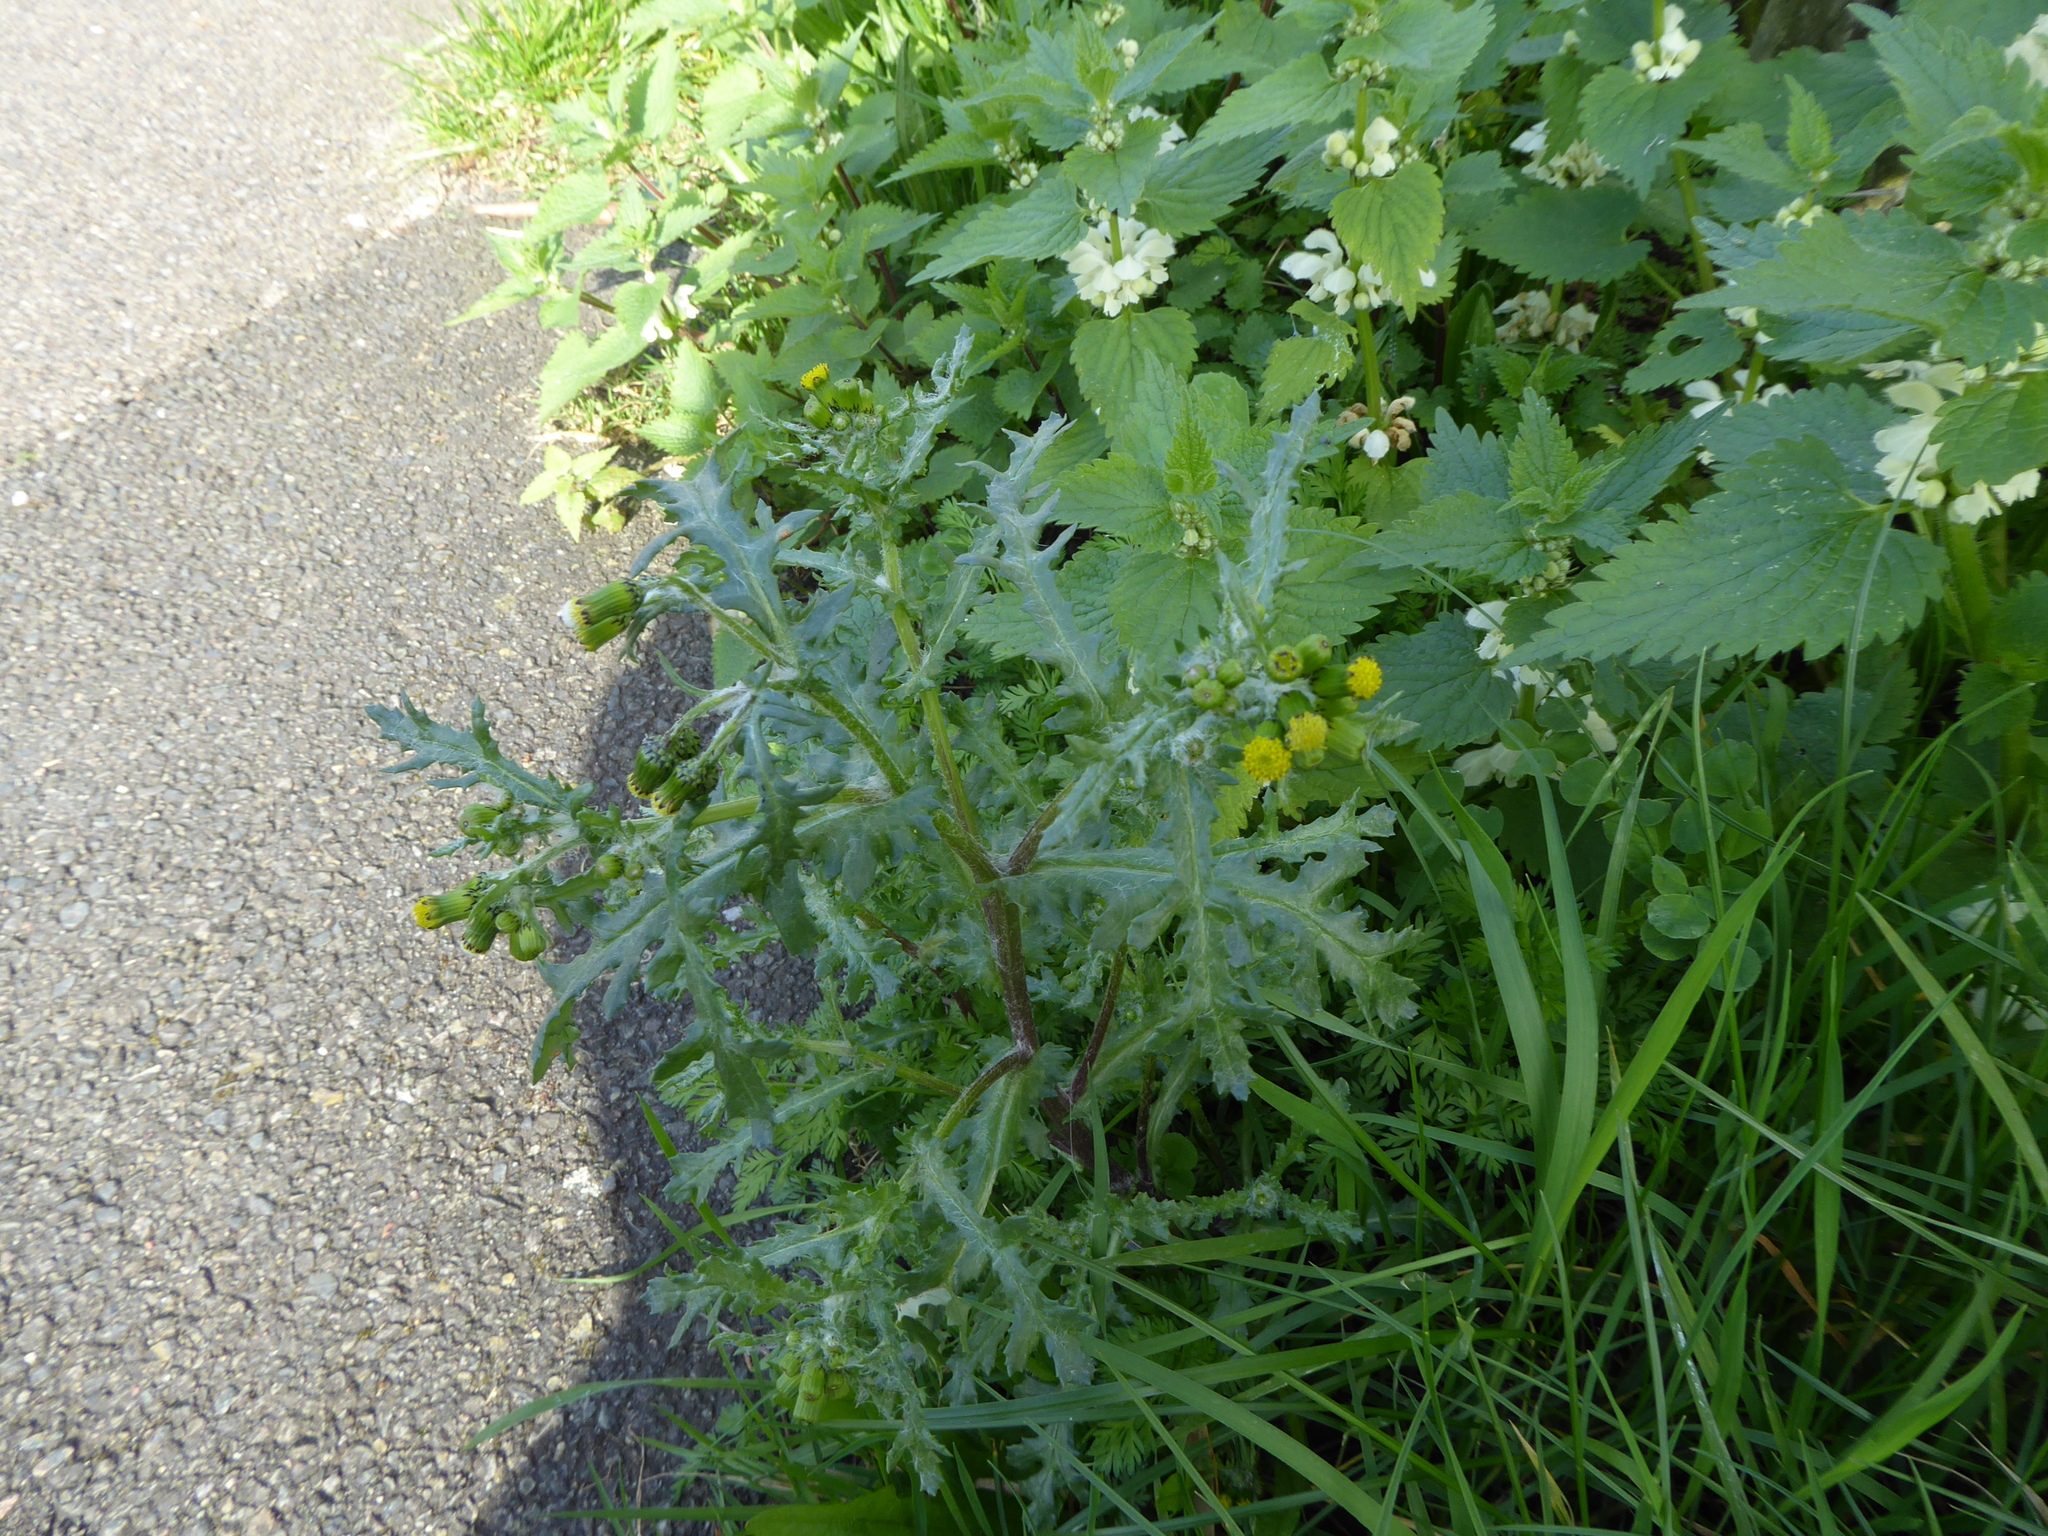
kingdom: Plantae
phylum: Tracheophyta
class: Magnoliopsida
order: Asterales
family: Asteraceae
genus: Senecio
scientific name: Senecio vulgaris
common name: Old-man-in-the-spring
